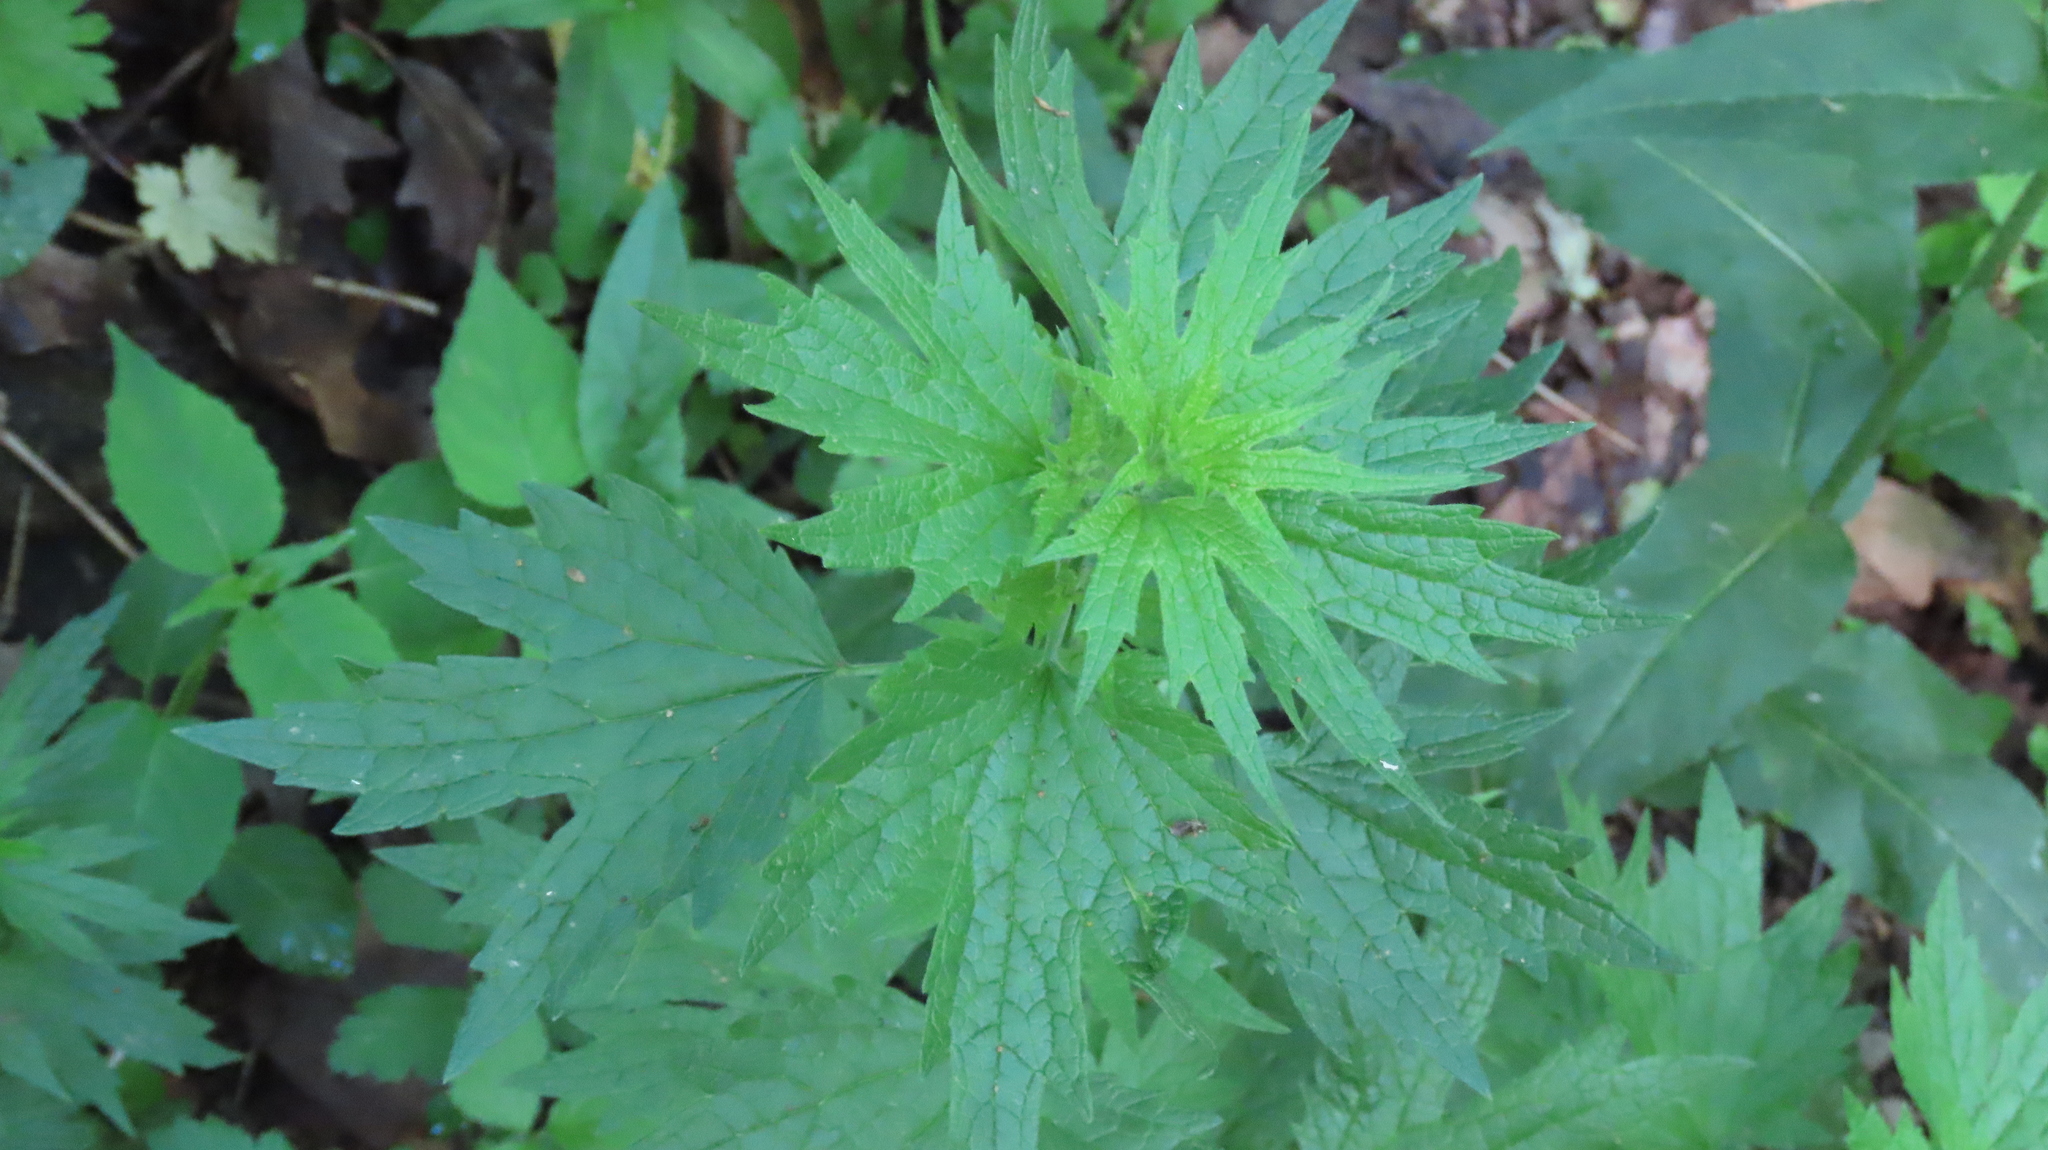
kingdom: Plantae
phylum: Tracheophyta
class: Magnoliopsida
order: Lamiales
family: Lamiaceae
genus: Leonurus
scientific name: Leonurus cardiaca
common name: Motherwort
